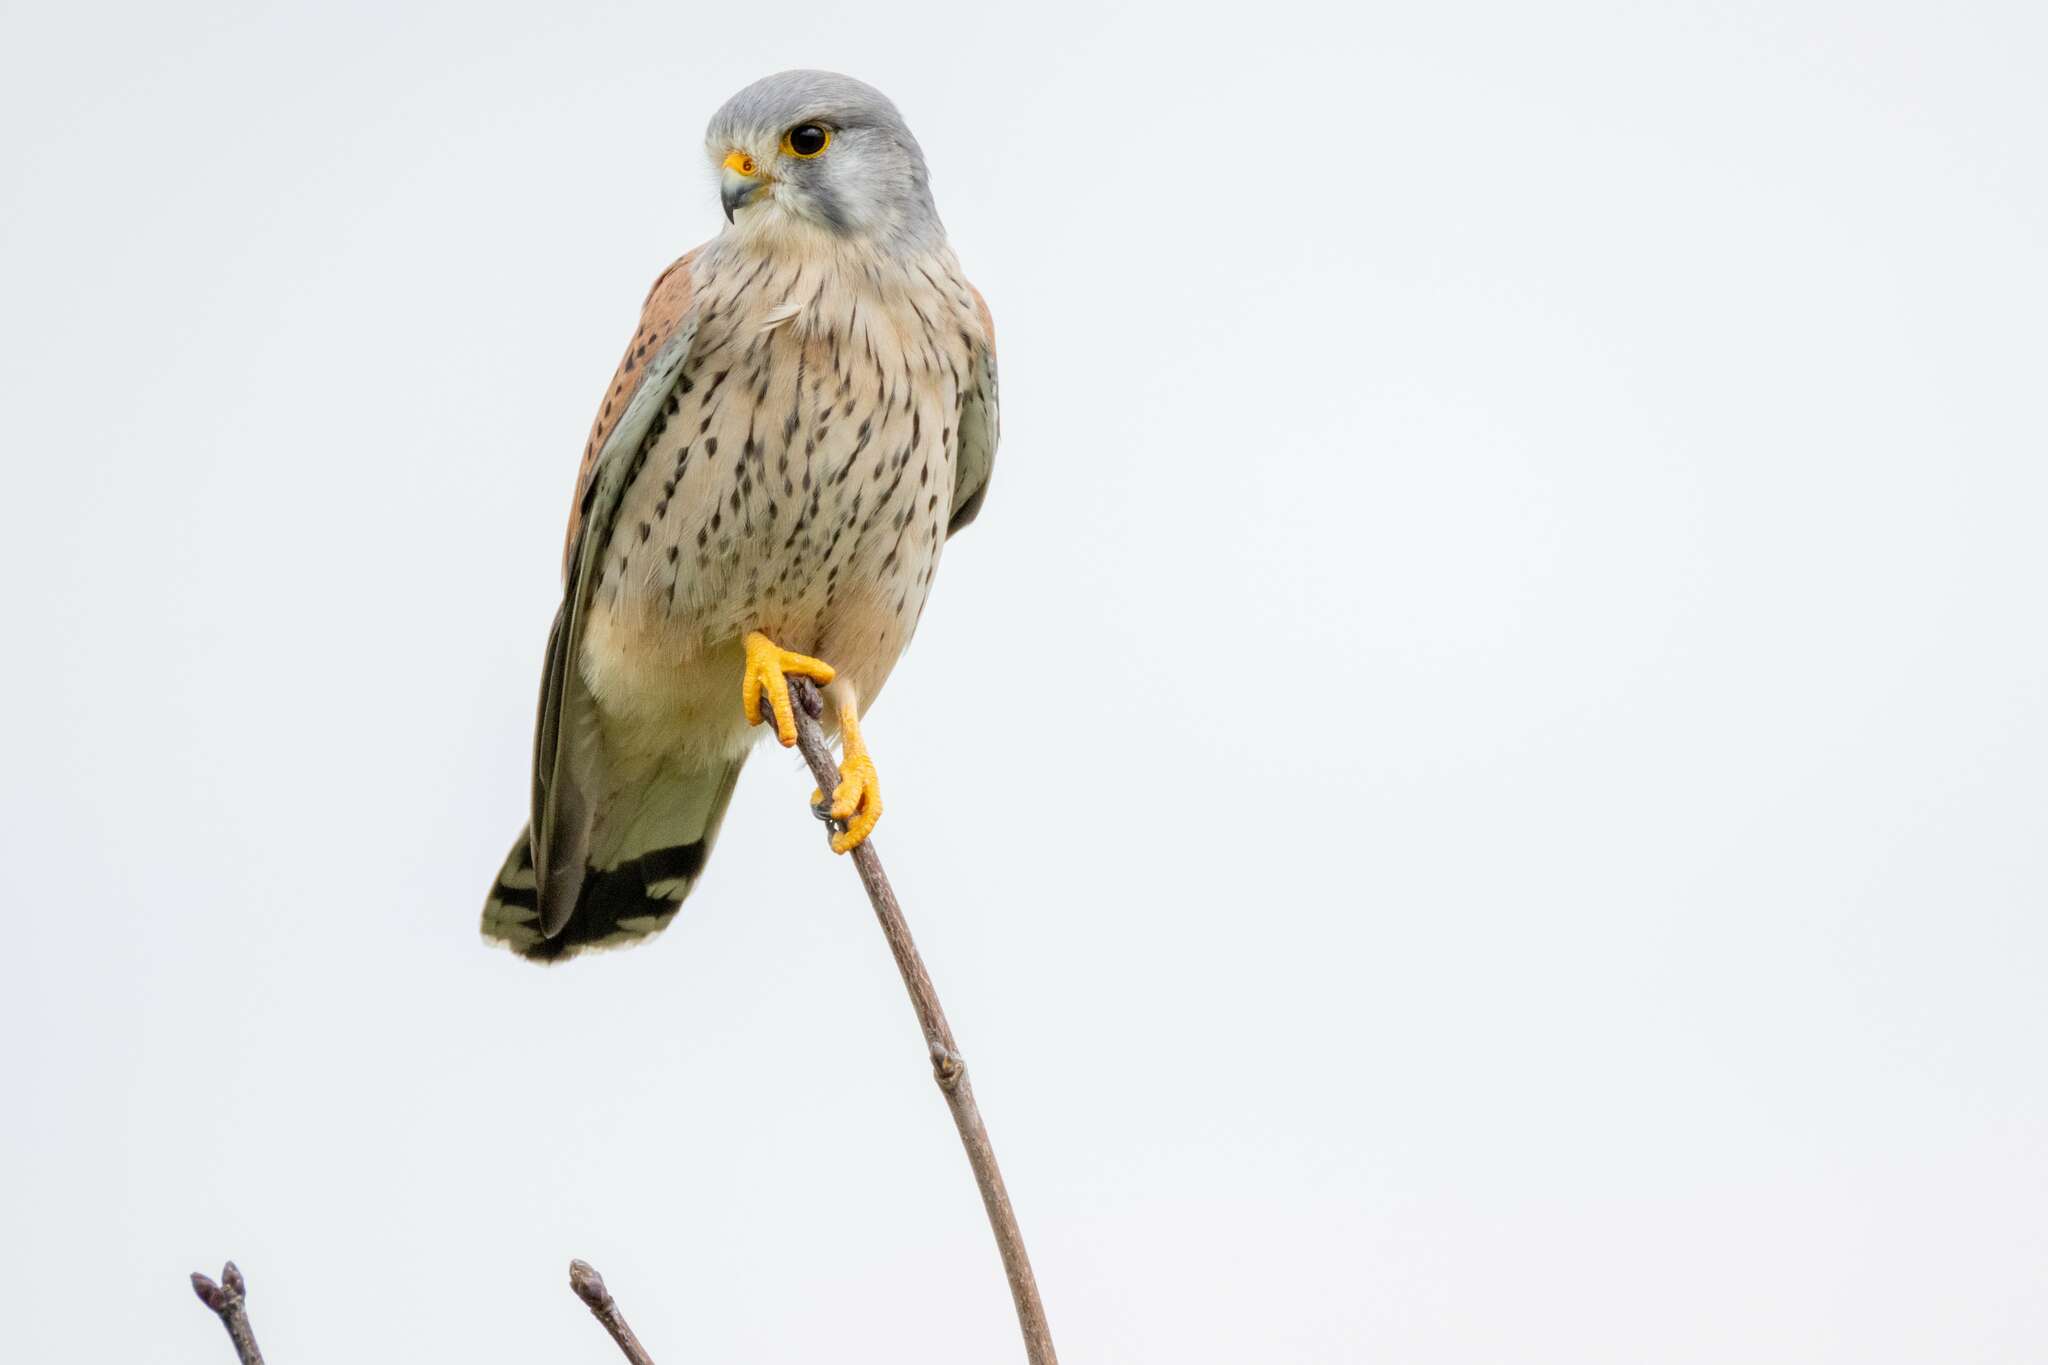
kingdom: Animalia
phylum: Chordata
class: Aves
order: Falconiformes
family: Falconidae
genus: Falco
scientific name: Falco tinnunculus
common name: Common kestrel
